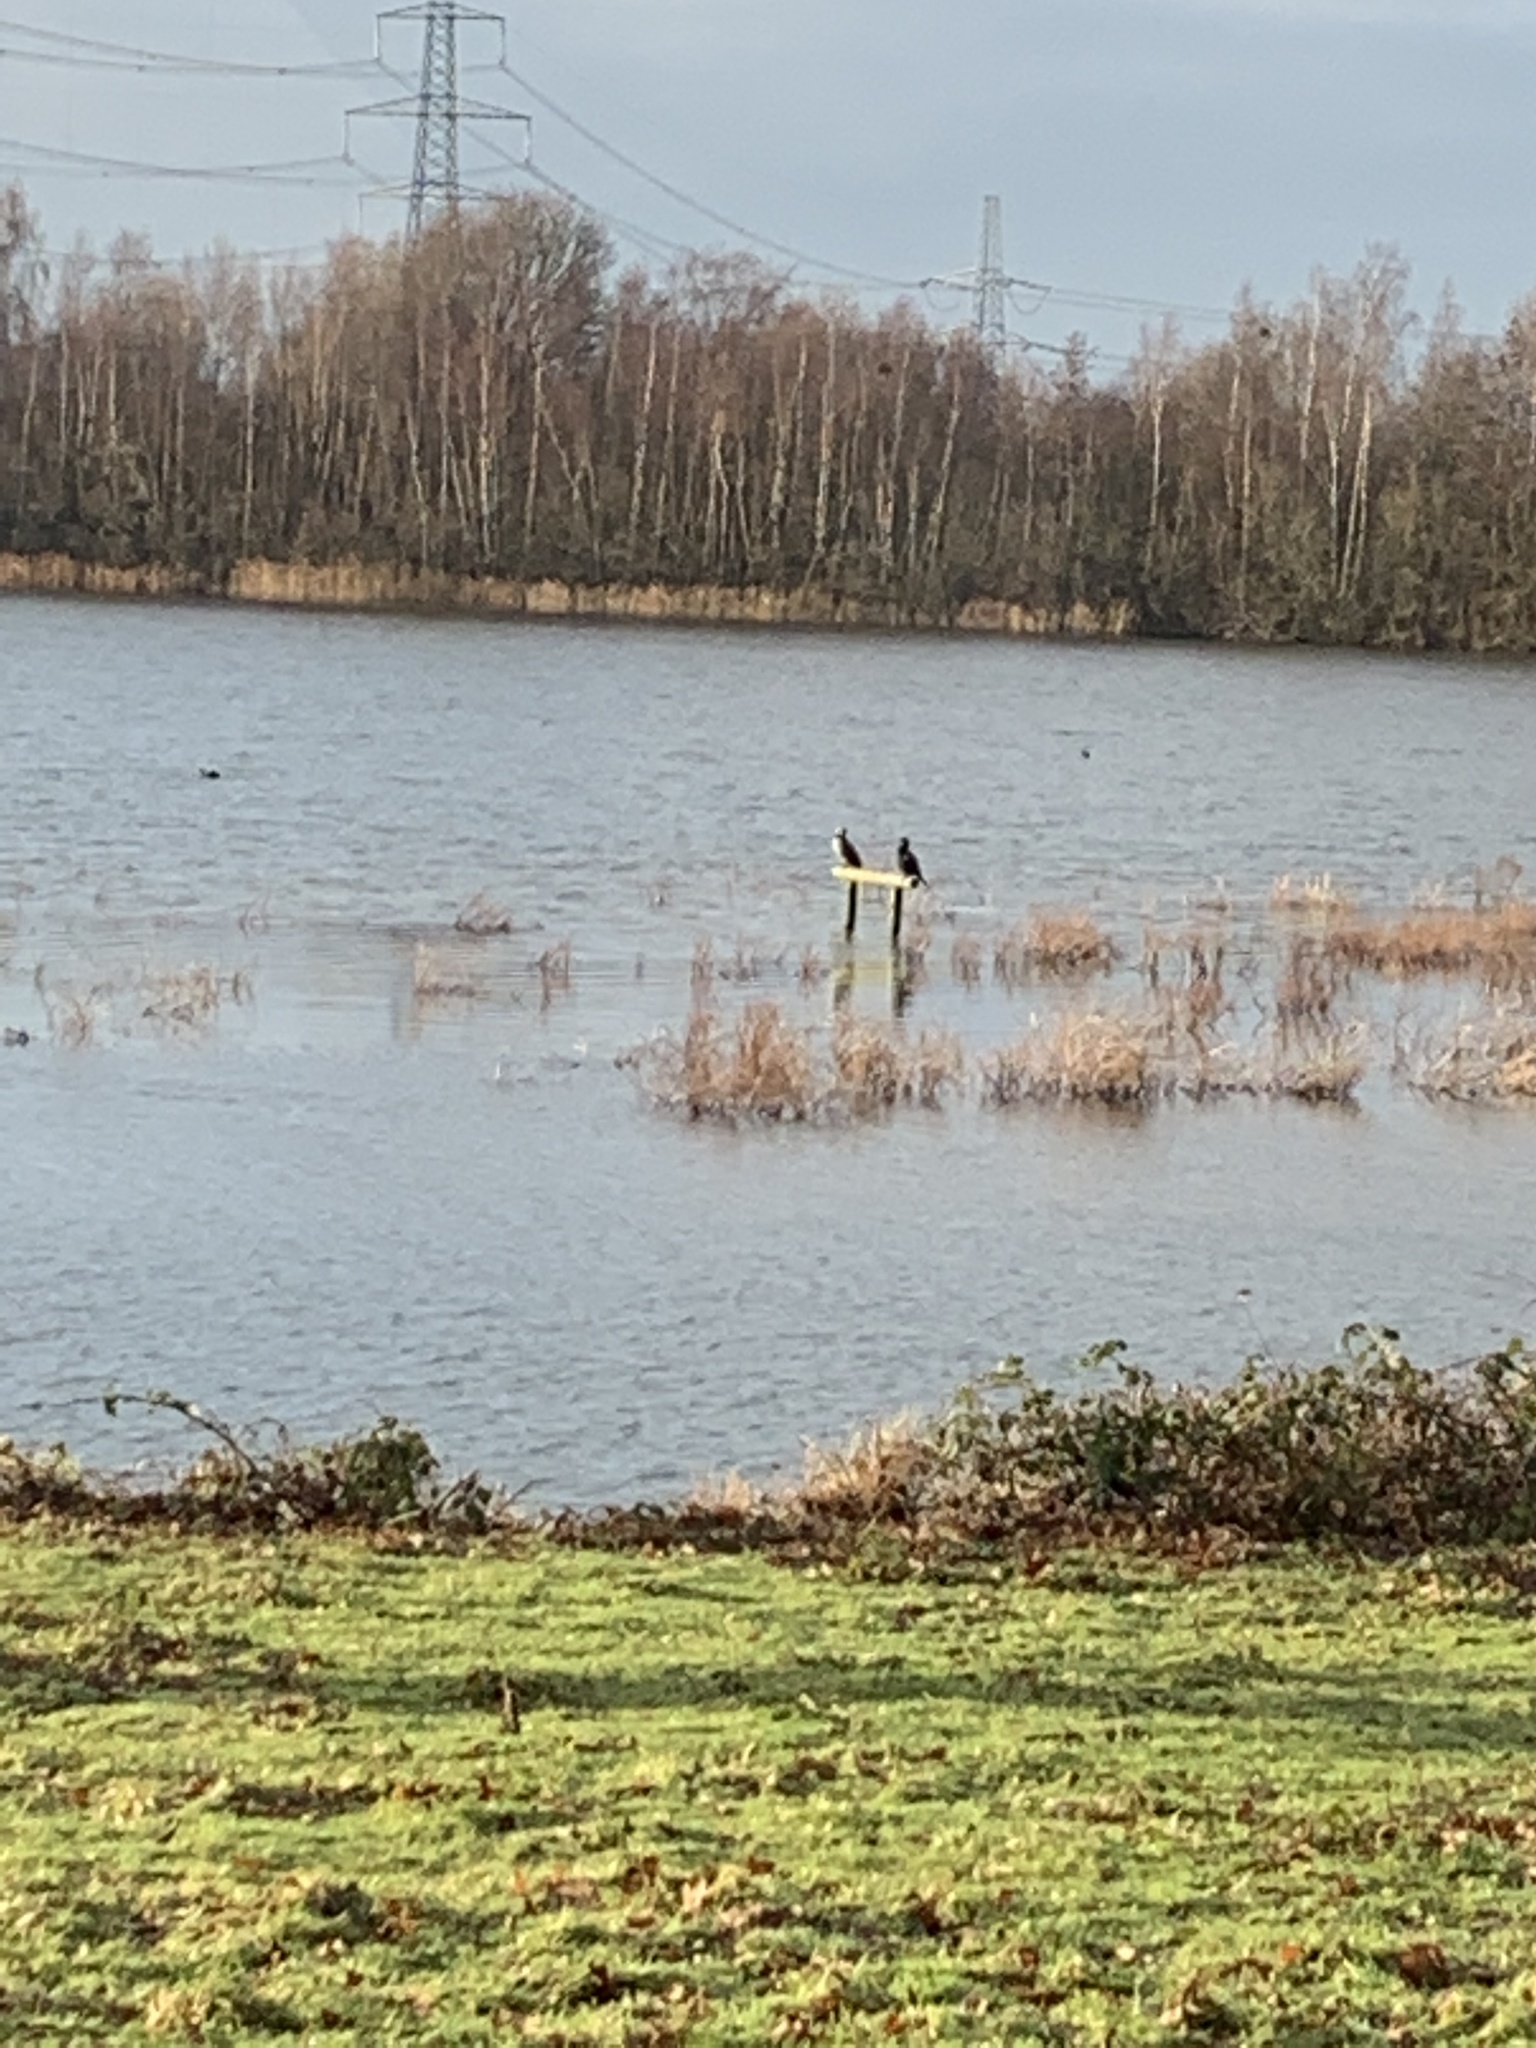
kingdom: Animalia
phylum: Chordata
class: Aves
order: Suliformes
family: Phalacrocoracidae
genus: Phalacrocorax
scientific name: Phalacrocorax carbo
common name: Great cormorant
